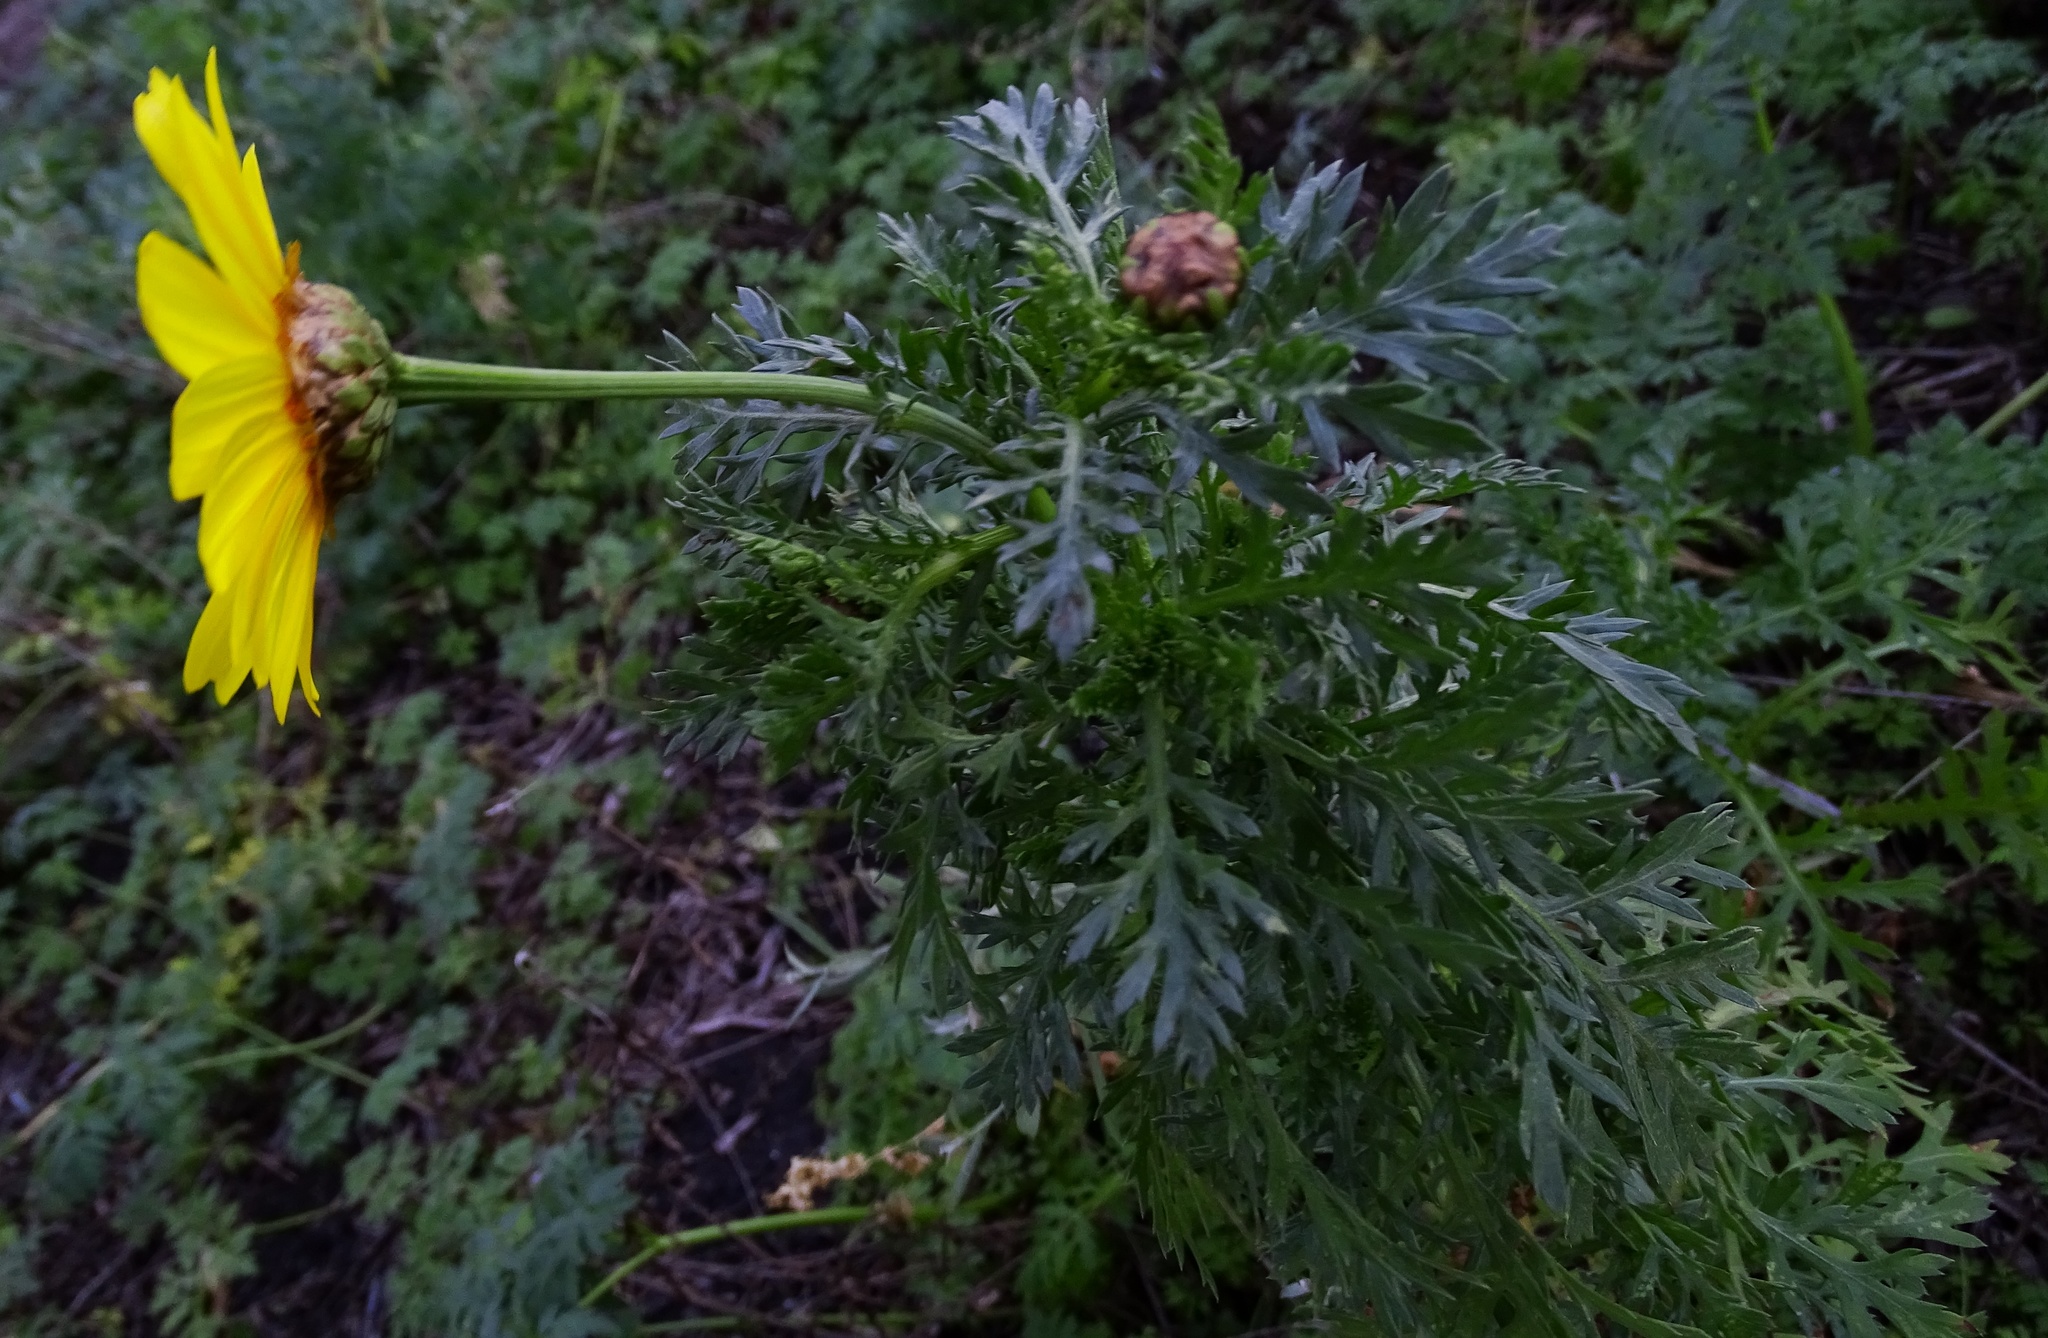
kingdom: Plantae
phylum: Tracheophyta
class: Magnoliopsida
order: Asterales
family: Asteraceae
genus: Glebionis
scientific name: Glebionis coronaria
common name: Crowndaisy
